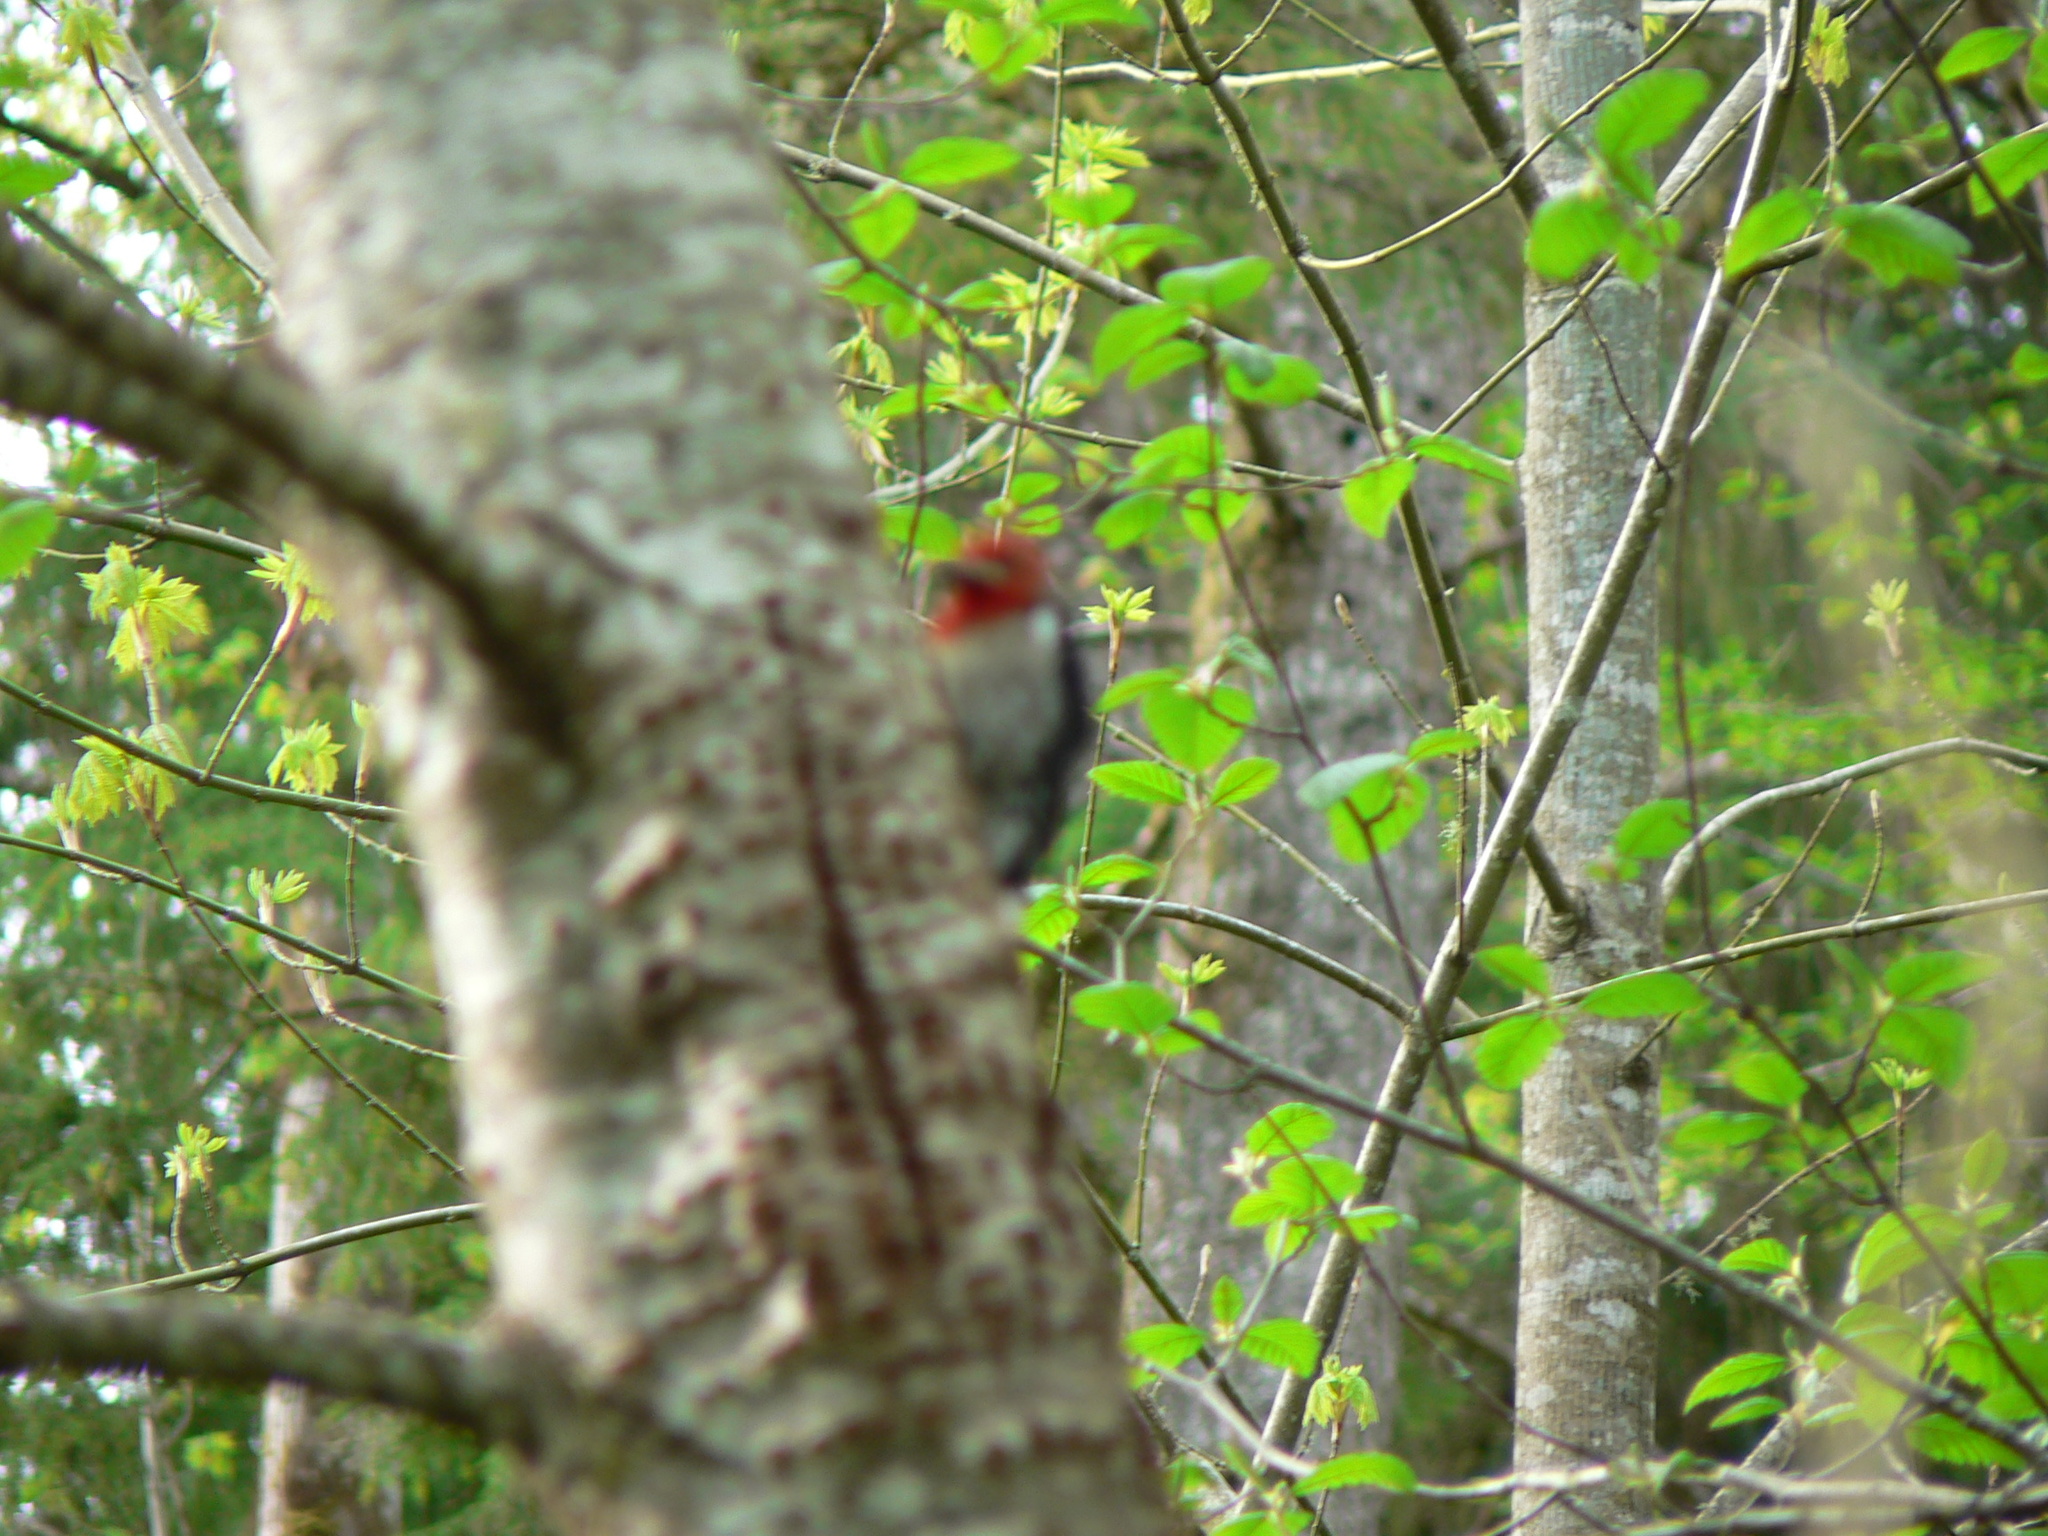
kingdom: Animalia
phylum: Chordata
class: Aves
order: Piciformes
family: Picidae
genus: Sphyrapicus
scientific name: Sphyrapicus ruber
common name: Red-breasted sapsucker
